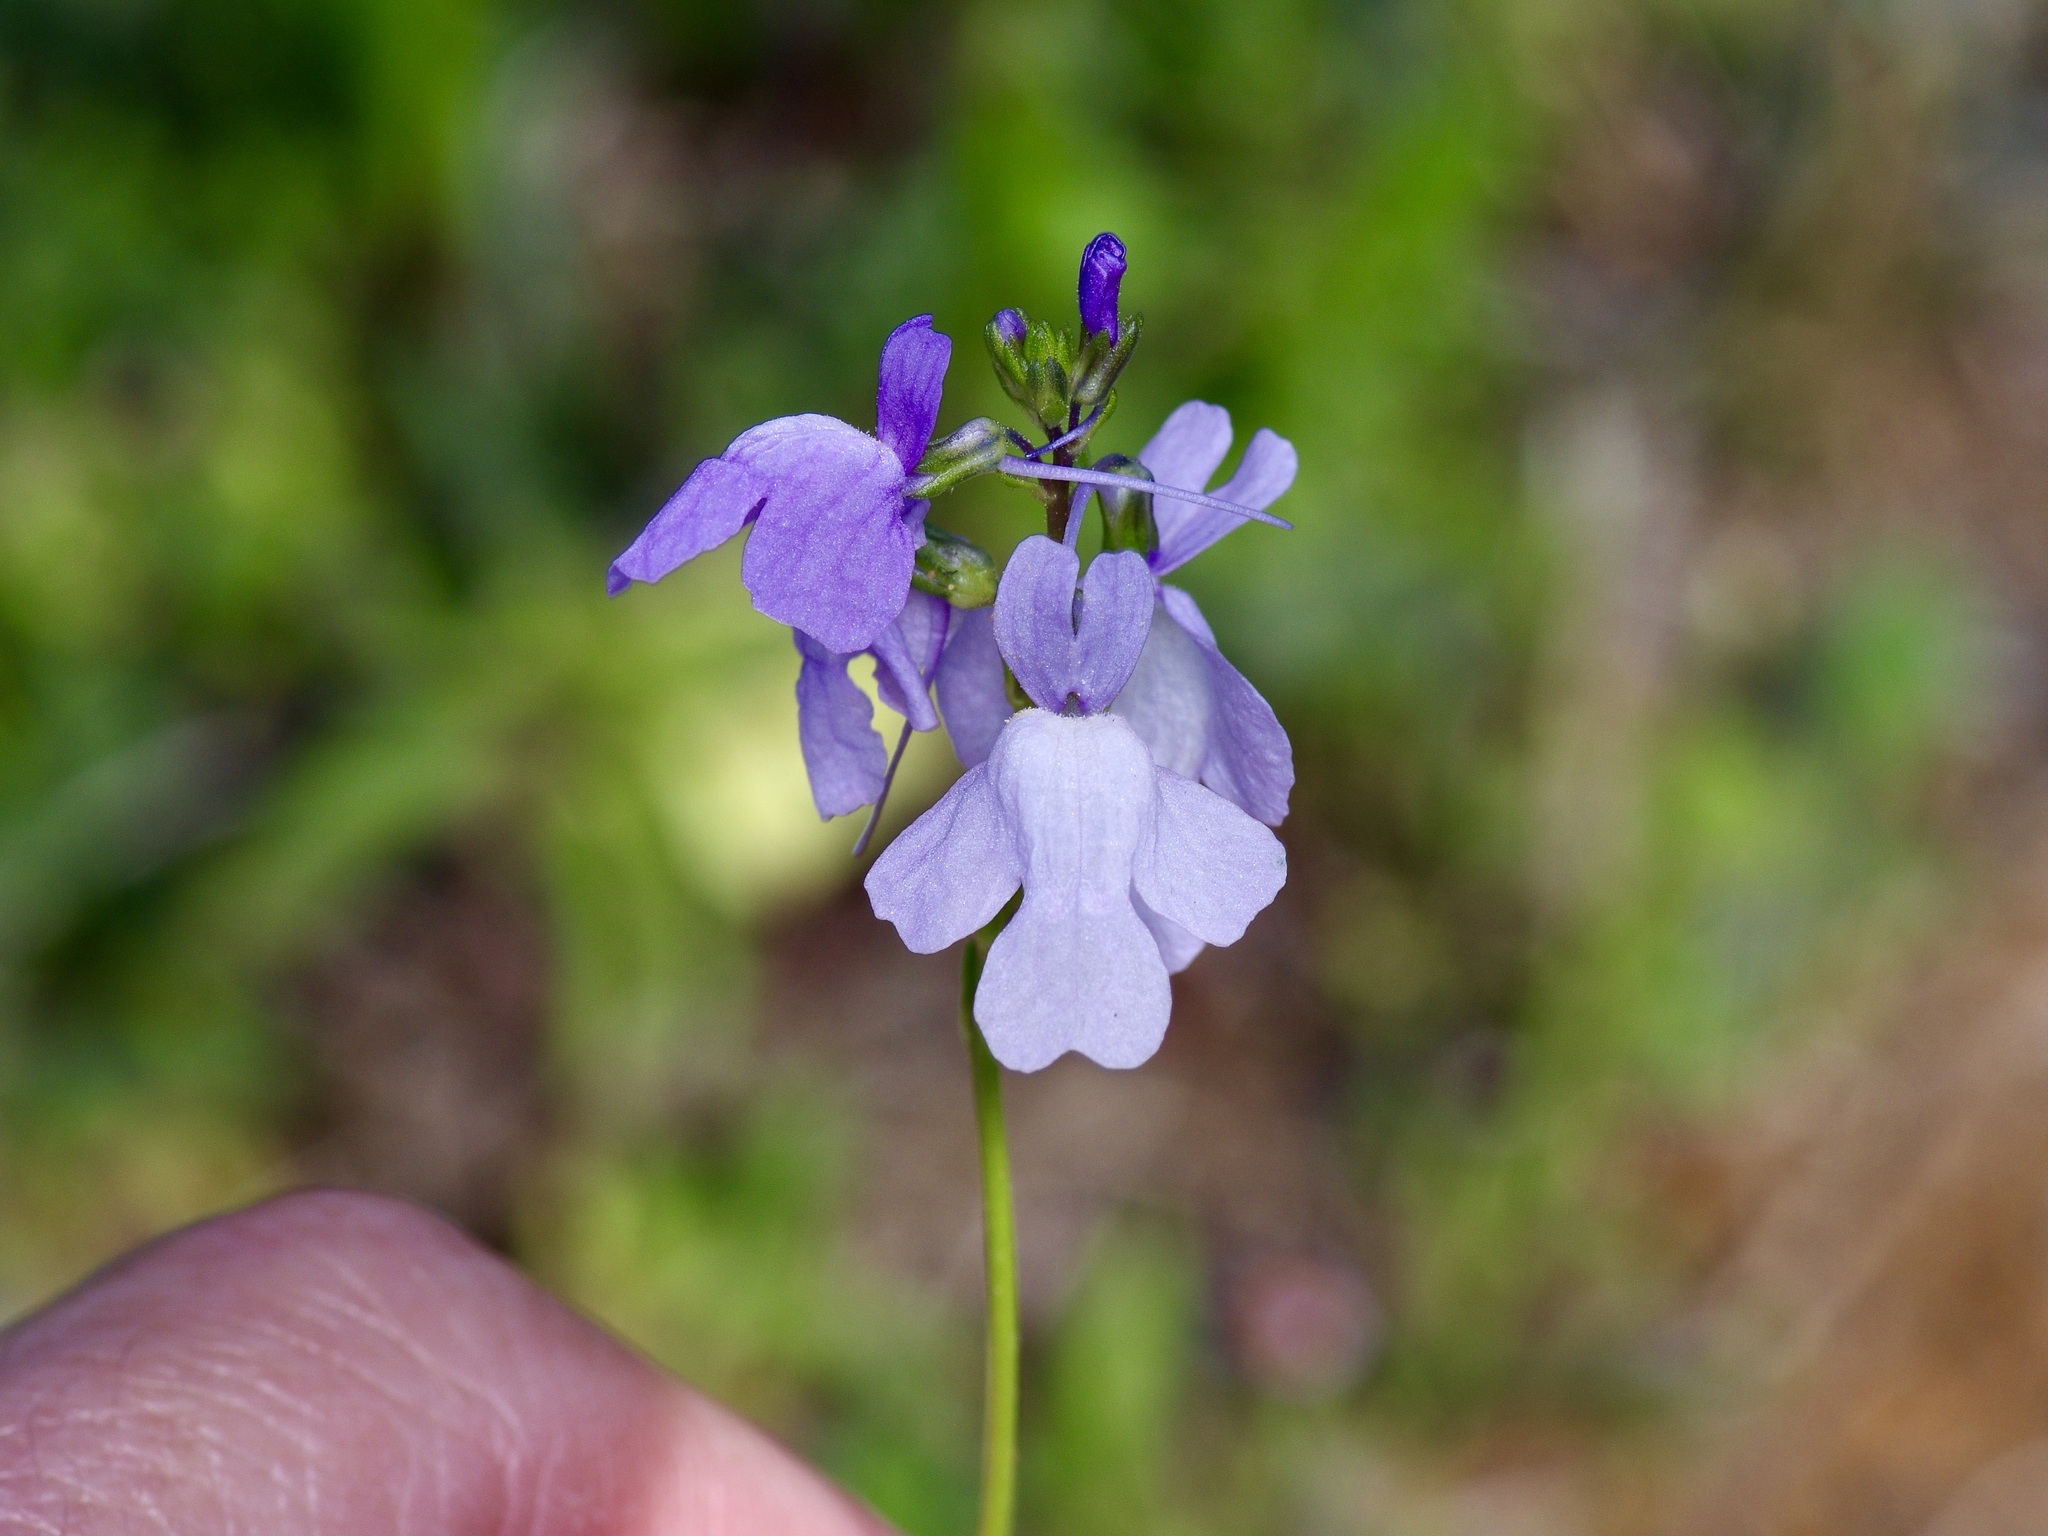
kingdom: Plantae
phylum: Tracheophyta
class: Magnoliopsida
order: Lamiales
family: Plantaginaceae
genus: Nuttallanthus
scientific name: Nuttallanthus texanus
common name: Texas toadflax
